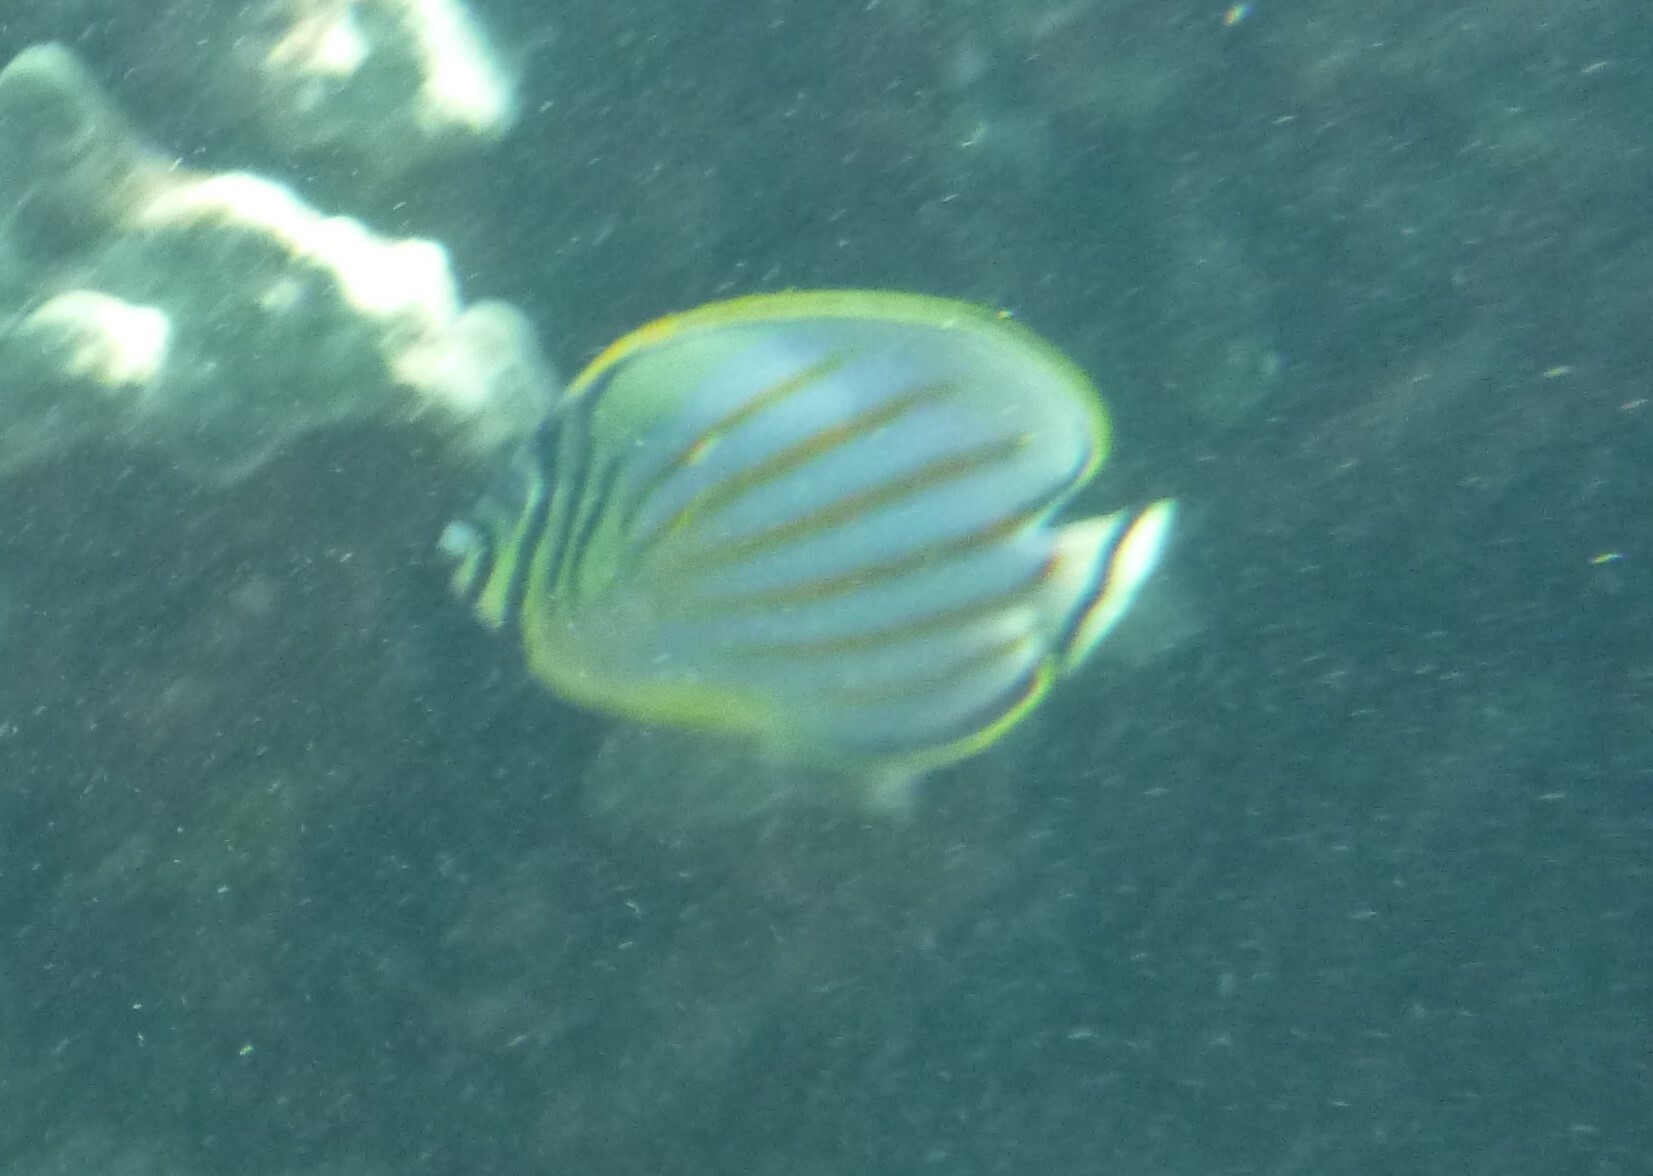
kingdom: Animalia
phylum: Chordata
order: Perciformes
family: Chaetodontidae
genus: Chaetodon
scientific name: Chaetodon ornatissimus
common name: Ornate butterflyfish
